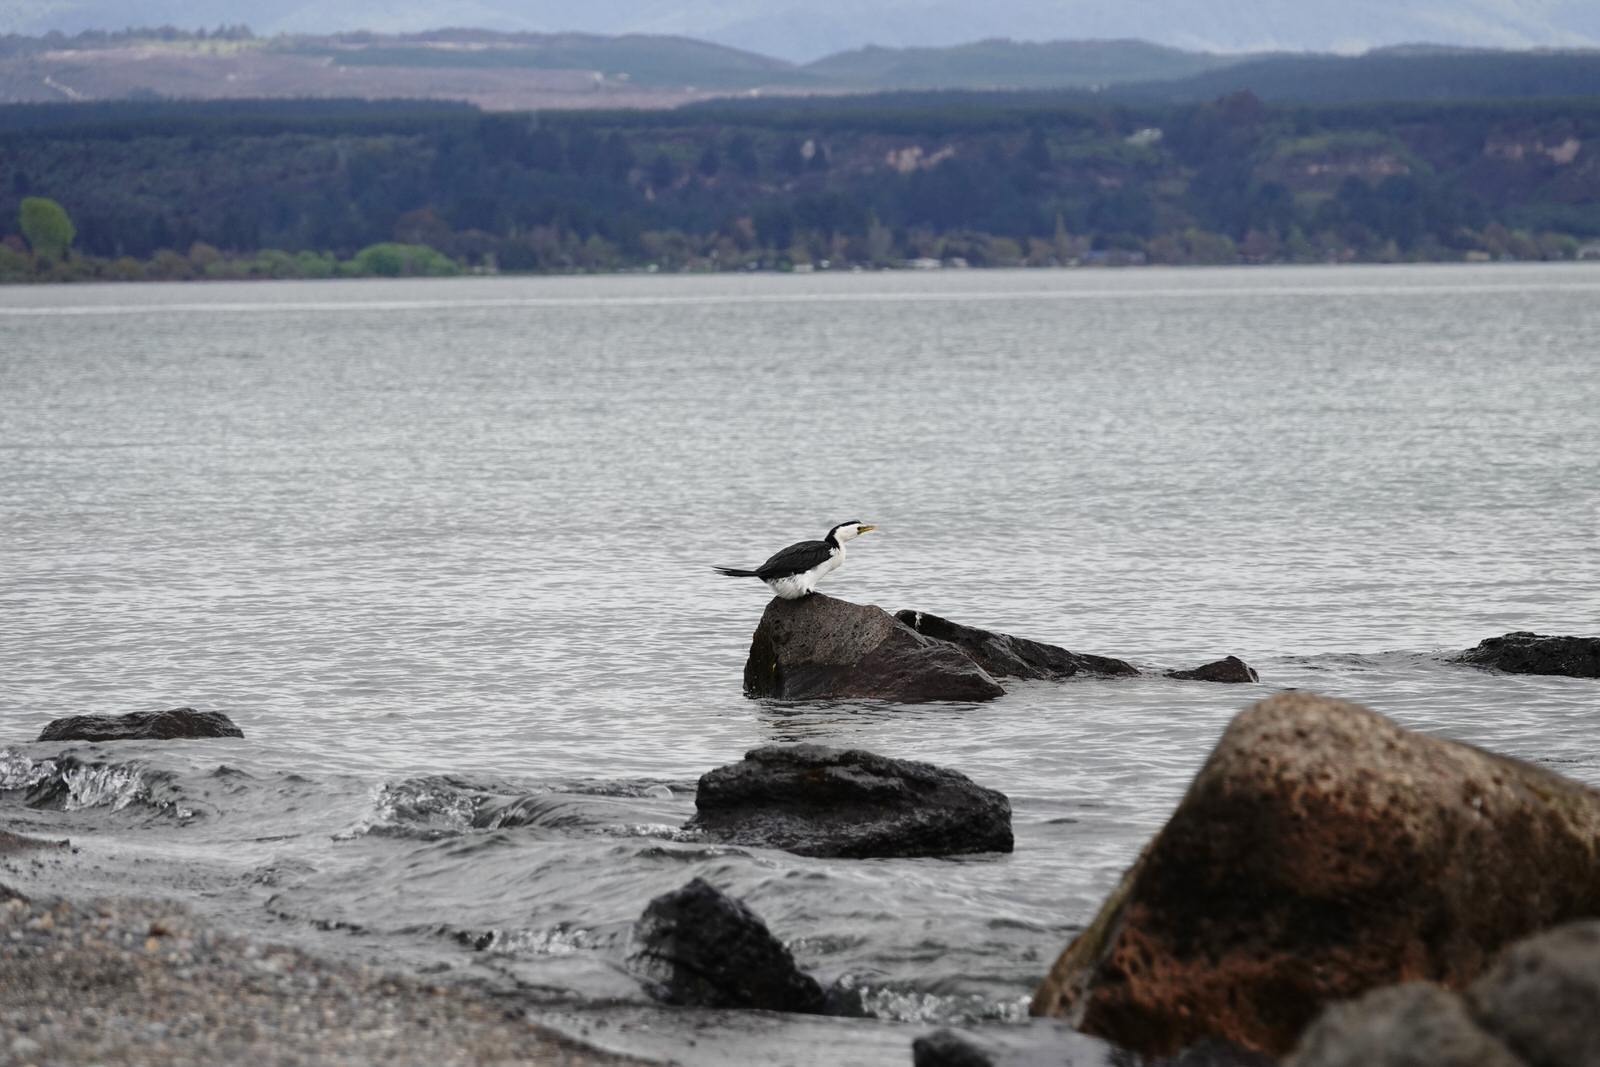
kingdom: Animalia
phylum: Chordata
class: Aves
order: Suliformes
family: Phalacrocoracidae
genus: Microcarbo
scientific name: Microcarbo melanoleucos
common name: Little pied cormorant
